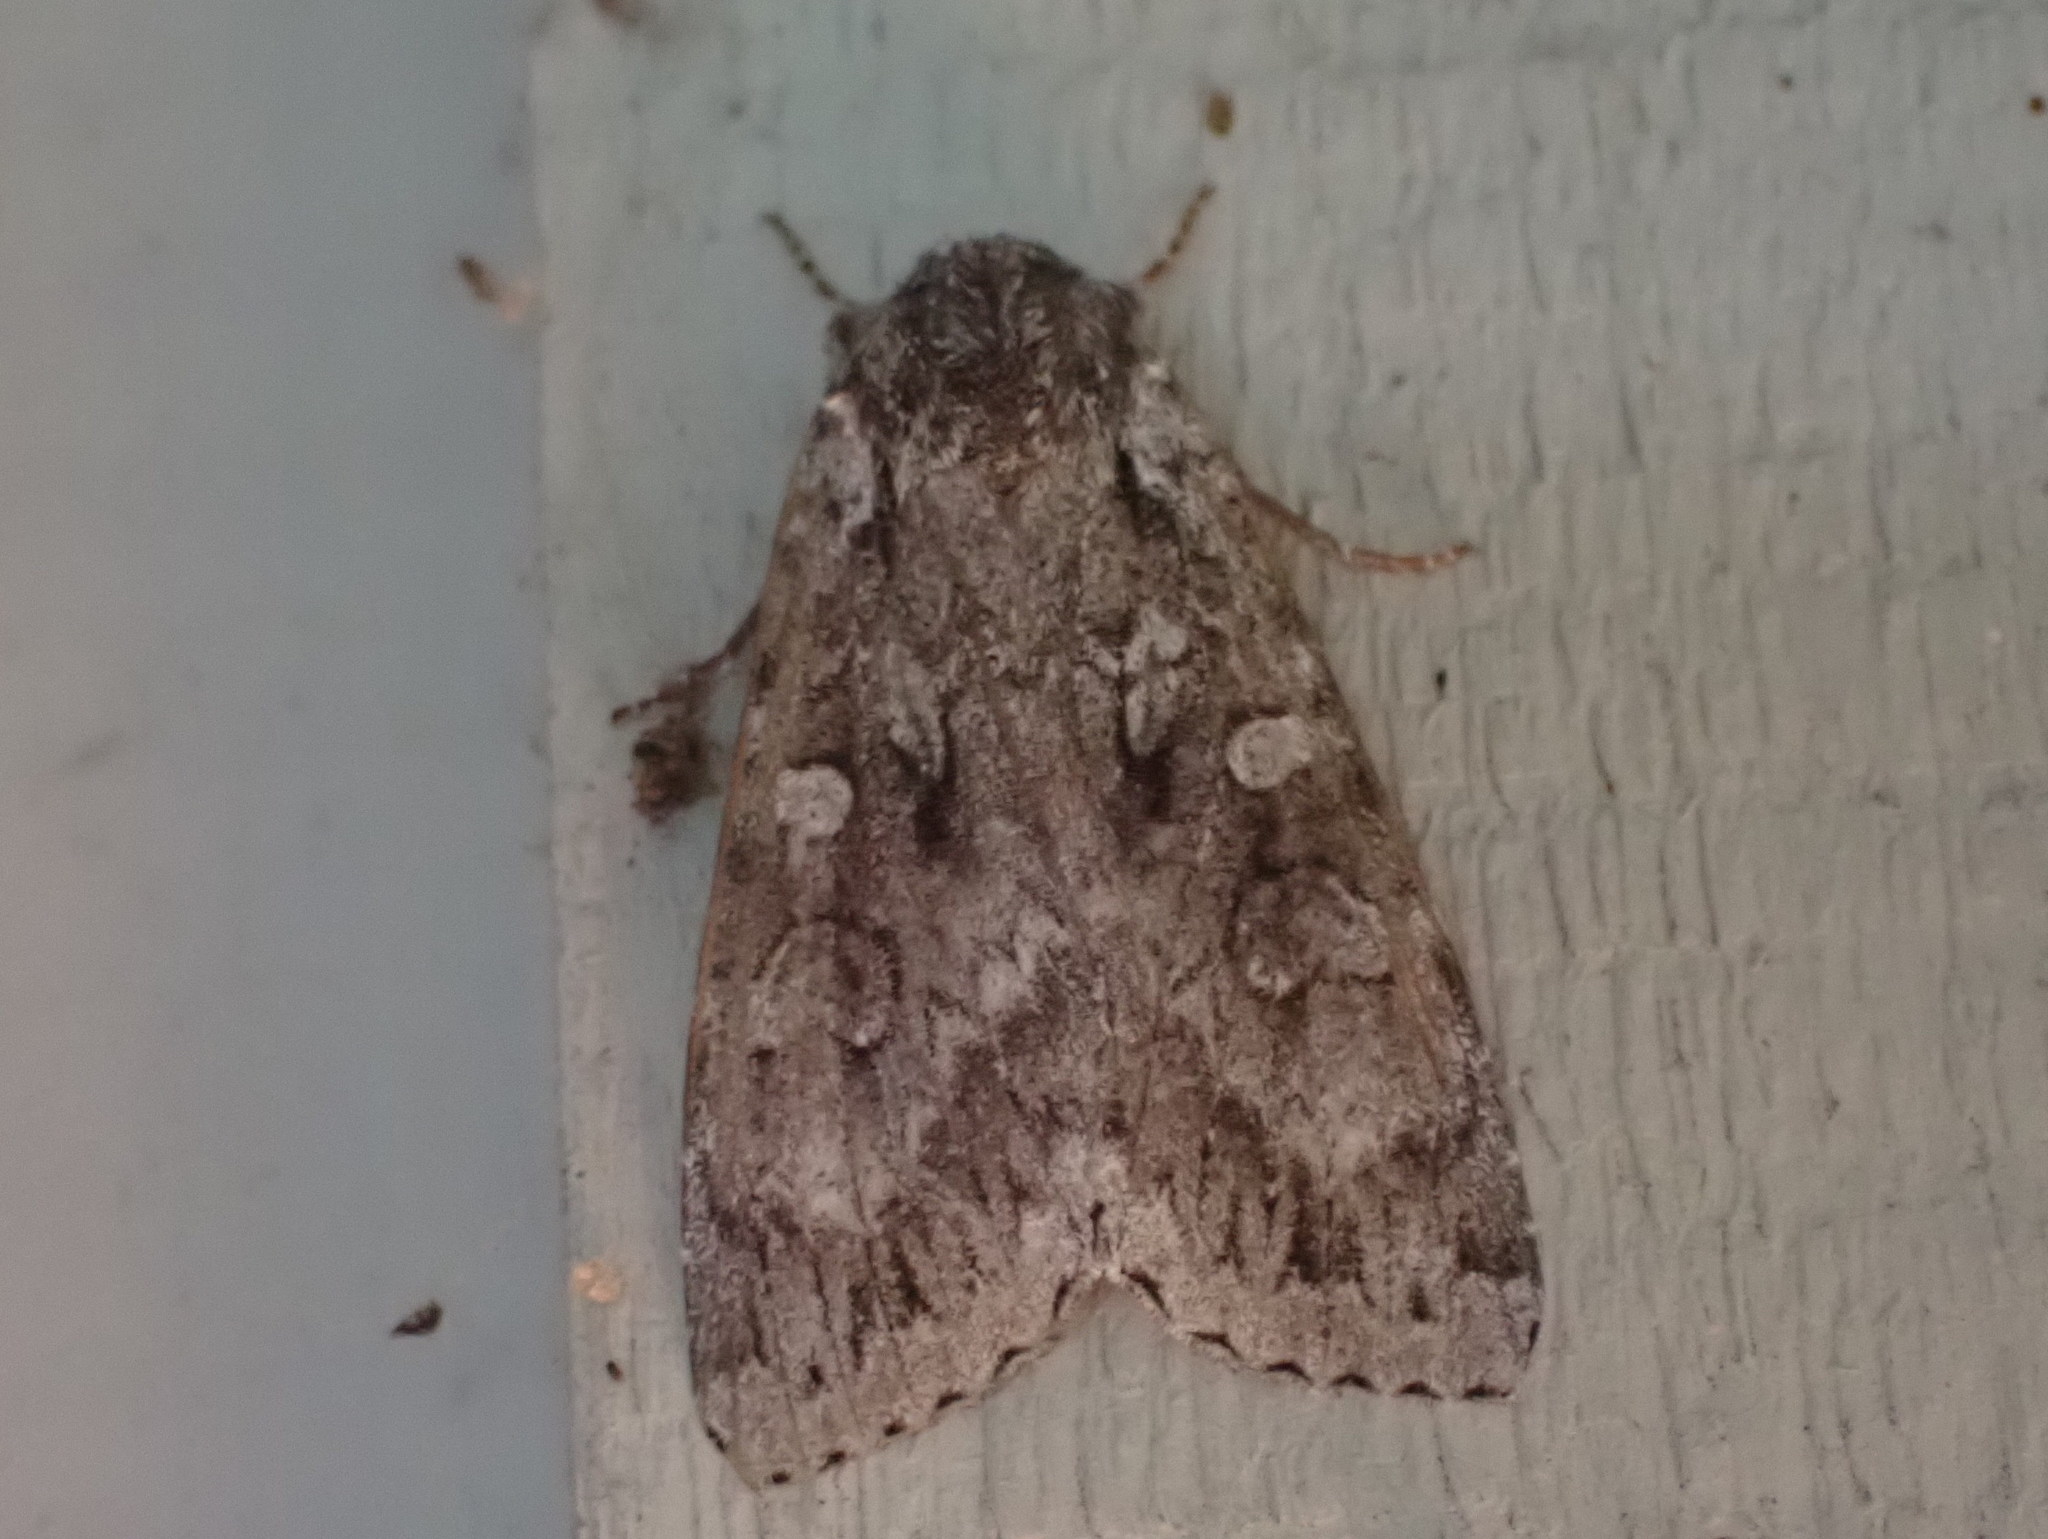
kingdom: Animalia
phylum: Arthropoda
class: Insecta
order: Lepidoptera
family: Noctuidae
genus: Eurois
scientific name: Eurois occulta
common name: Great brocade
